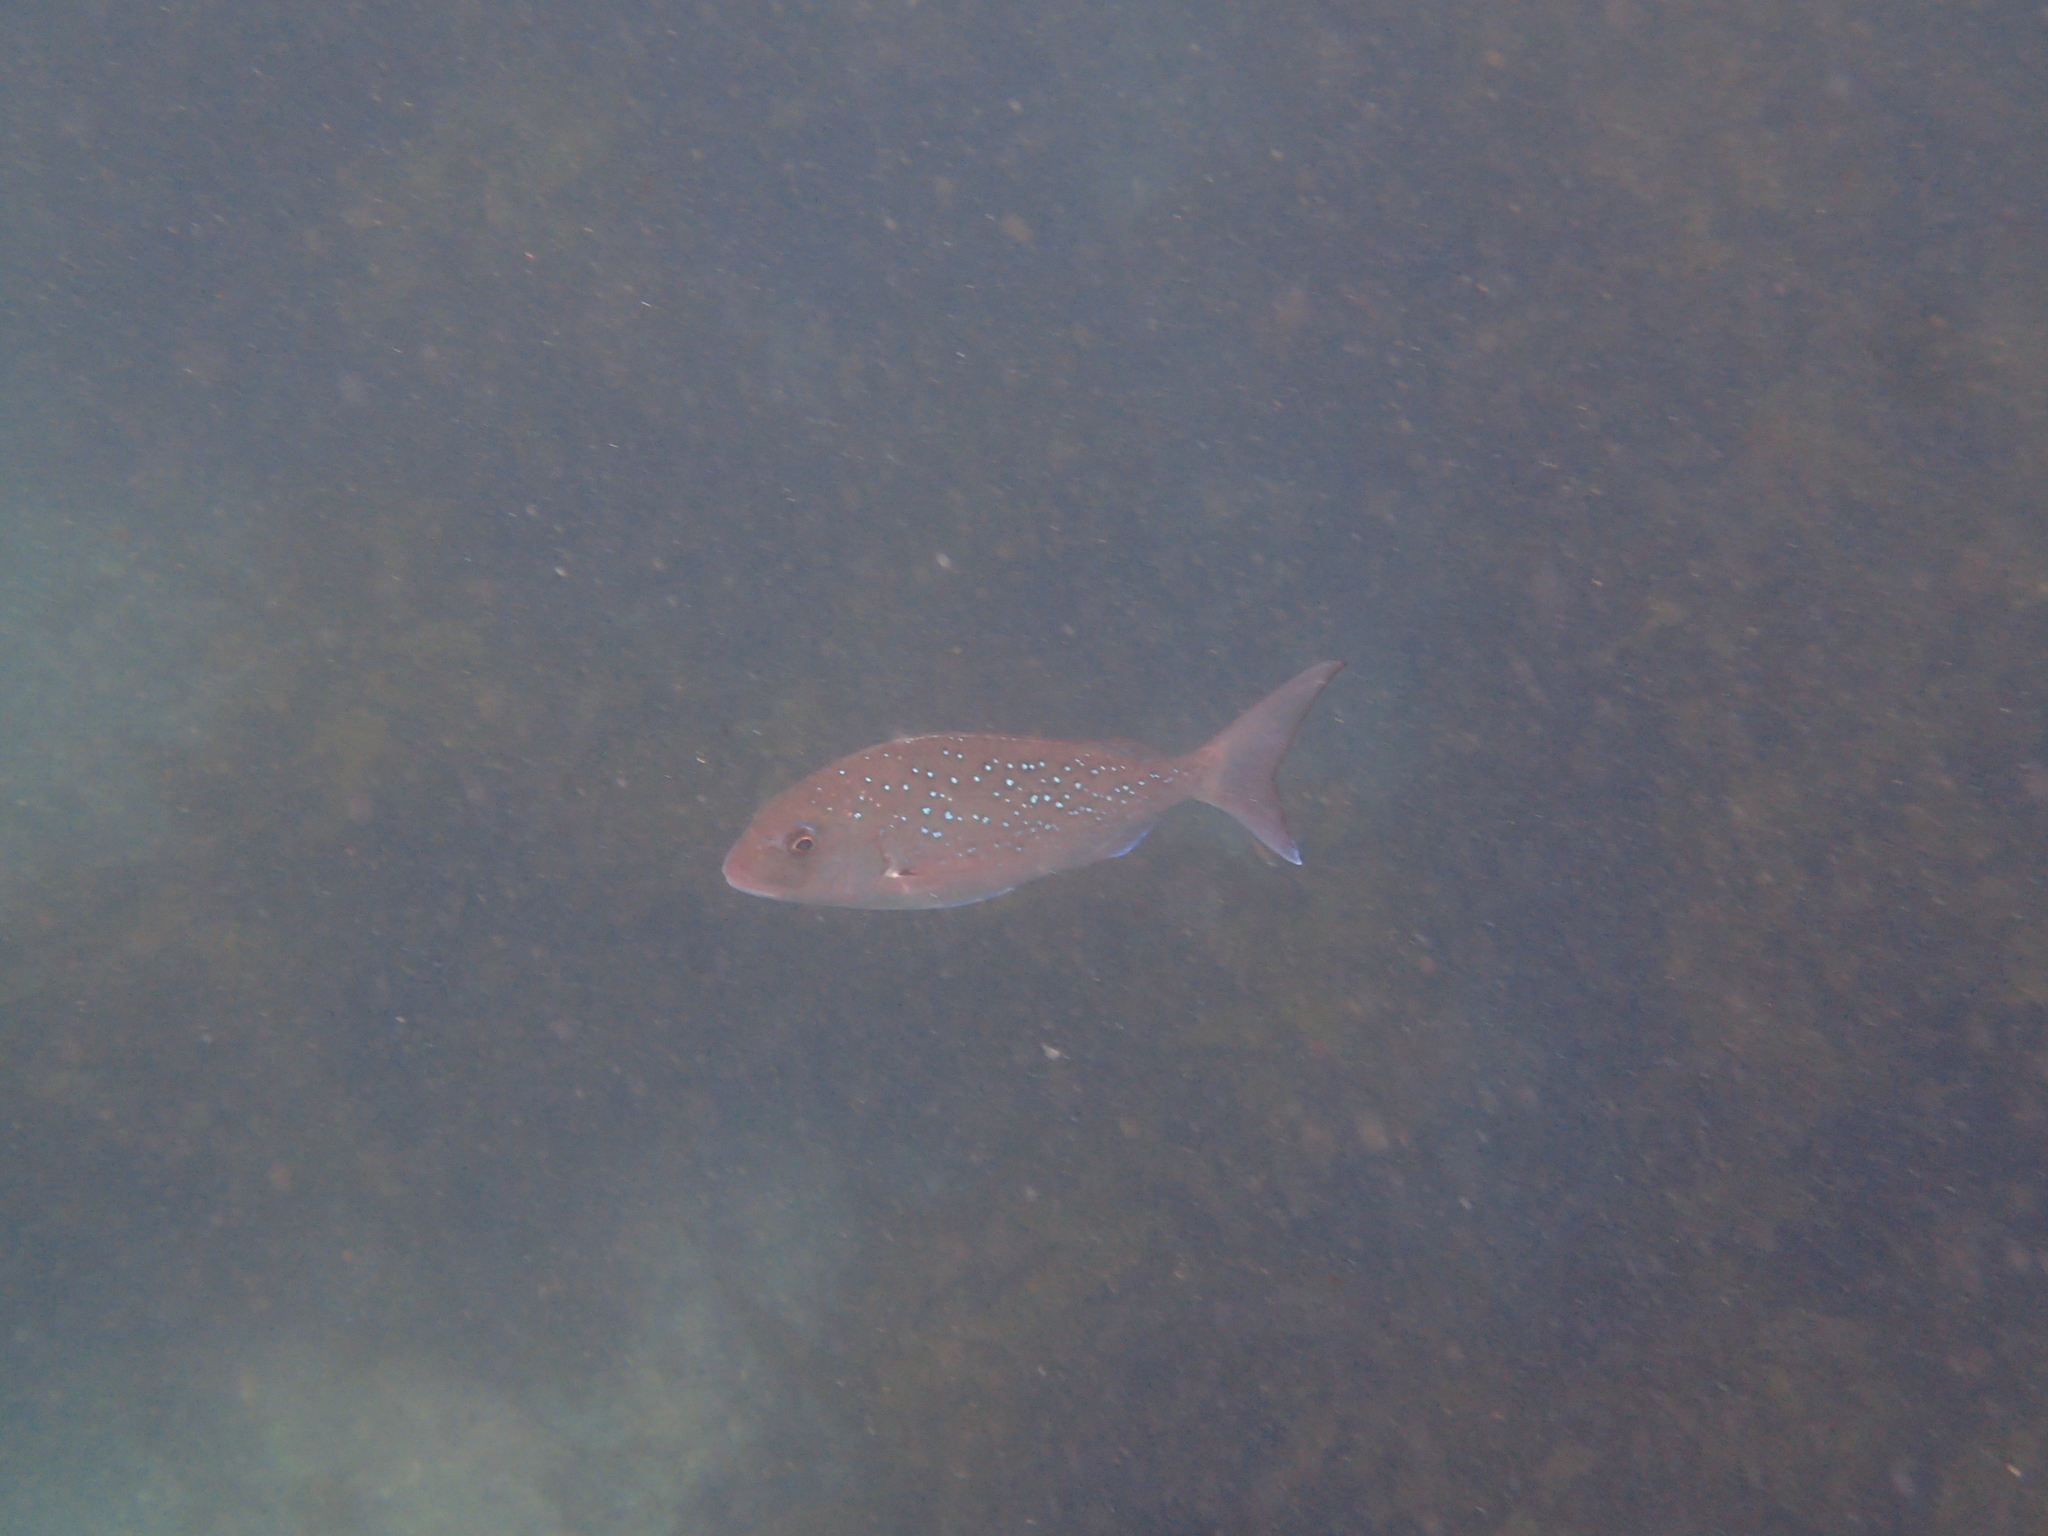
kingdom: Animalia
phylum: Chordata
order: Perciformes
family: Sparidae
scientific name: Sparidae
